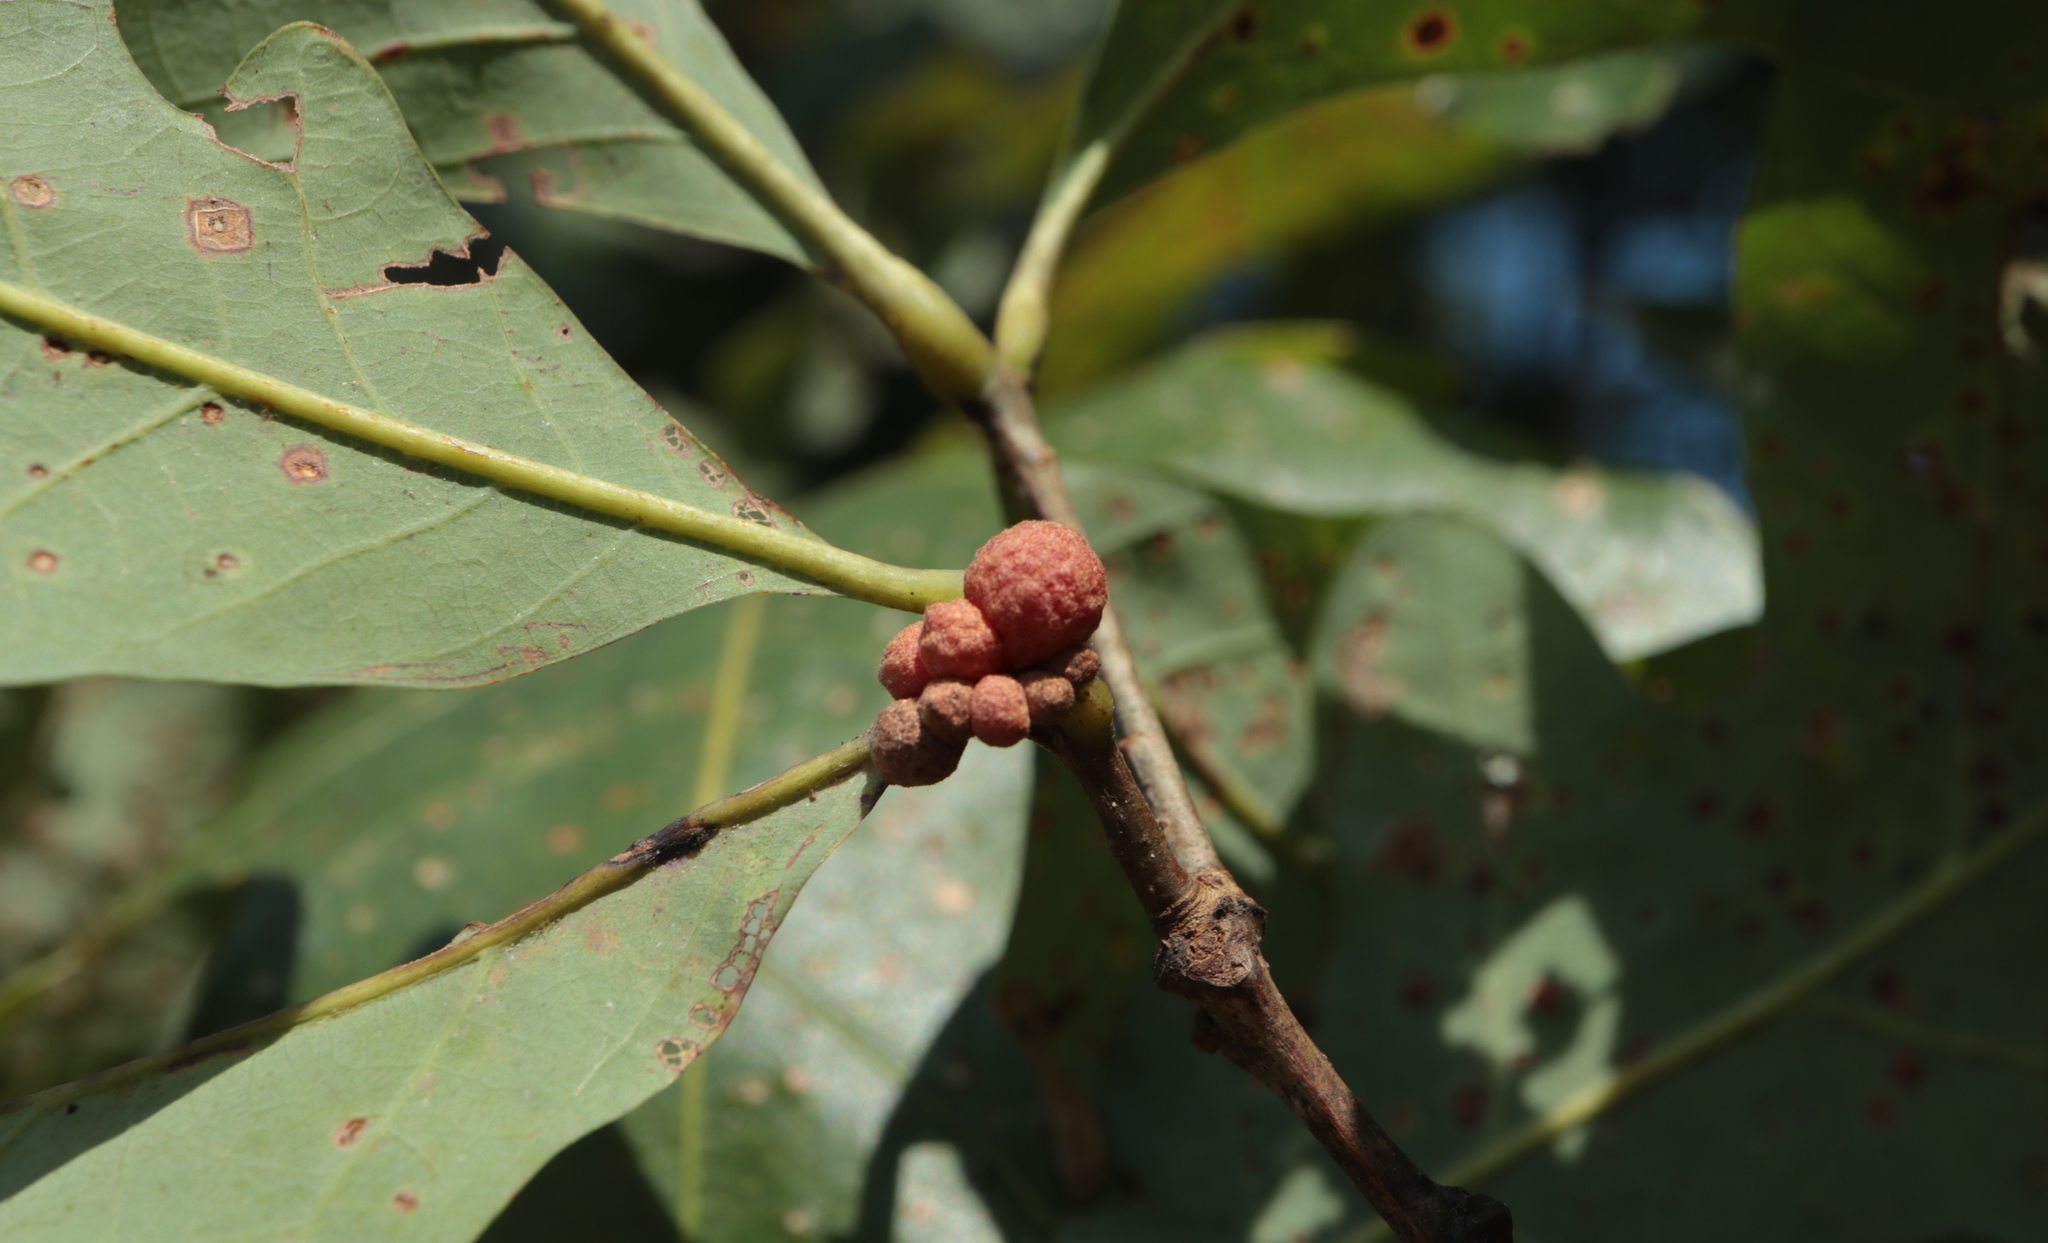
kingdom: Animalia
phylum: Arthropoda
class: Insecta
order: Hymenoptera
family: Cynipidae
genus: Andricus
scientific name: Andricus
